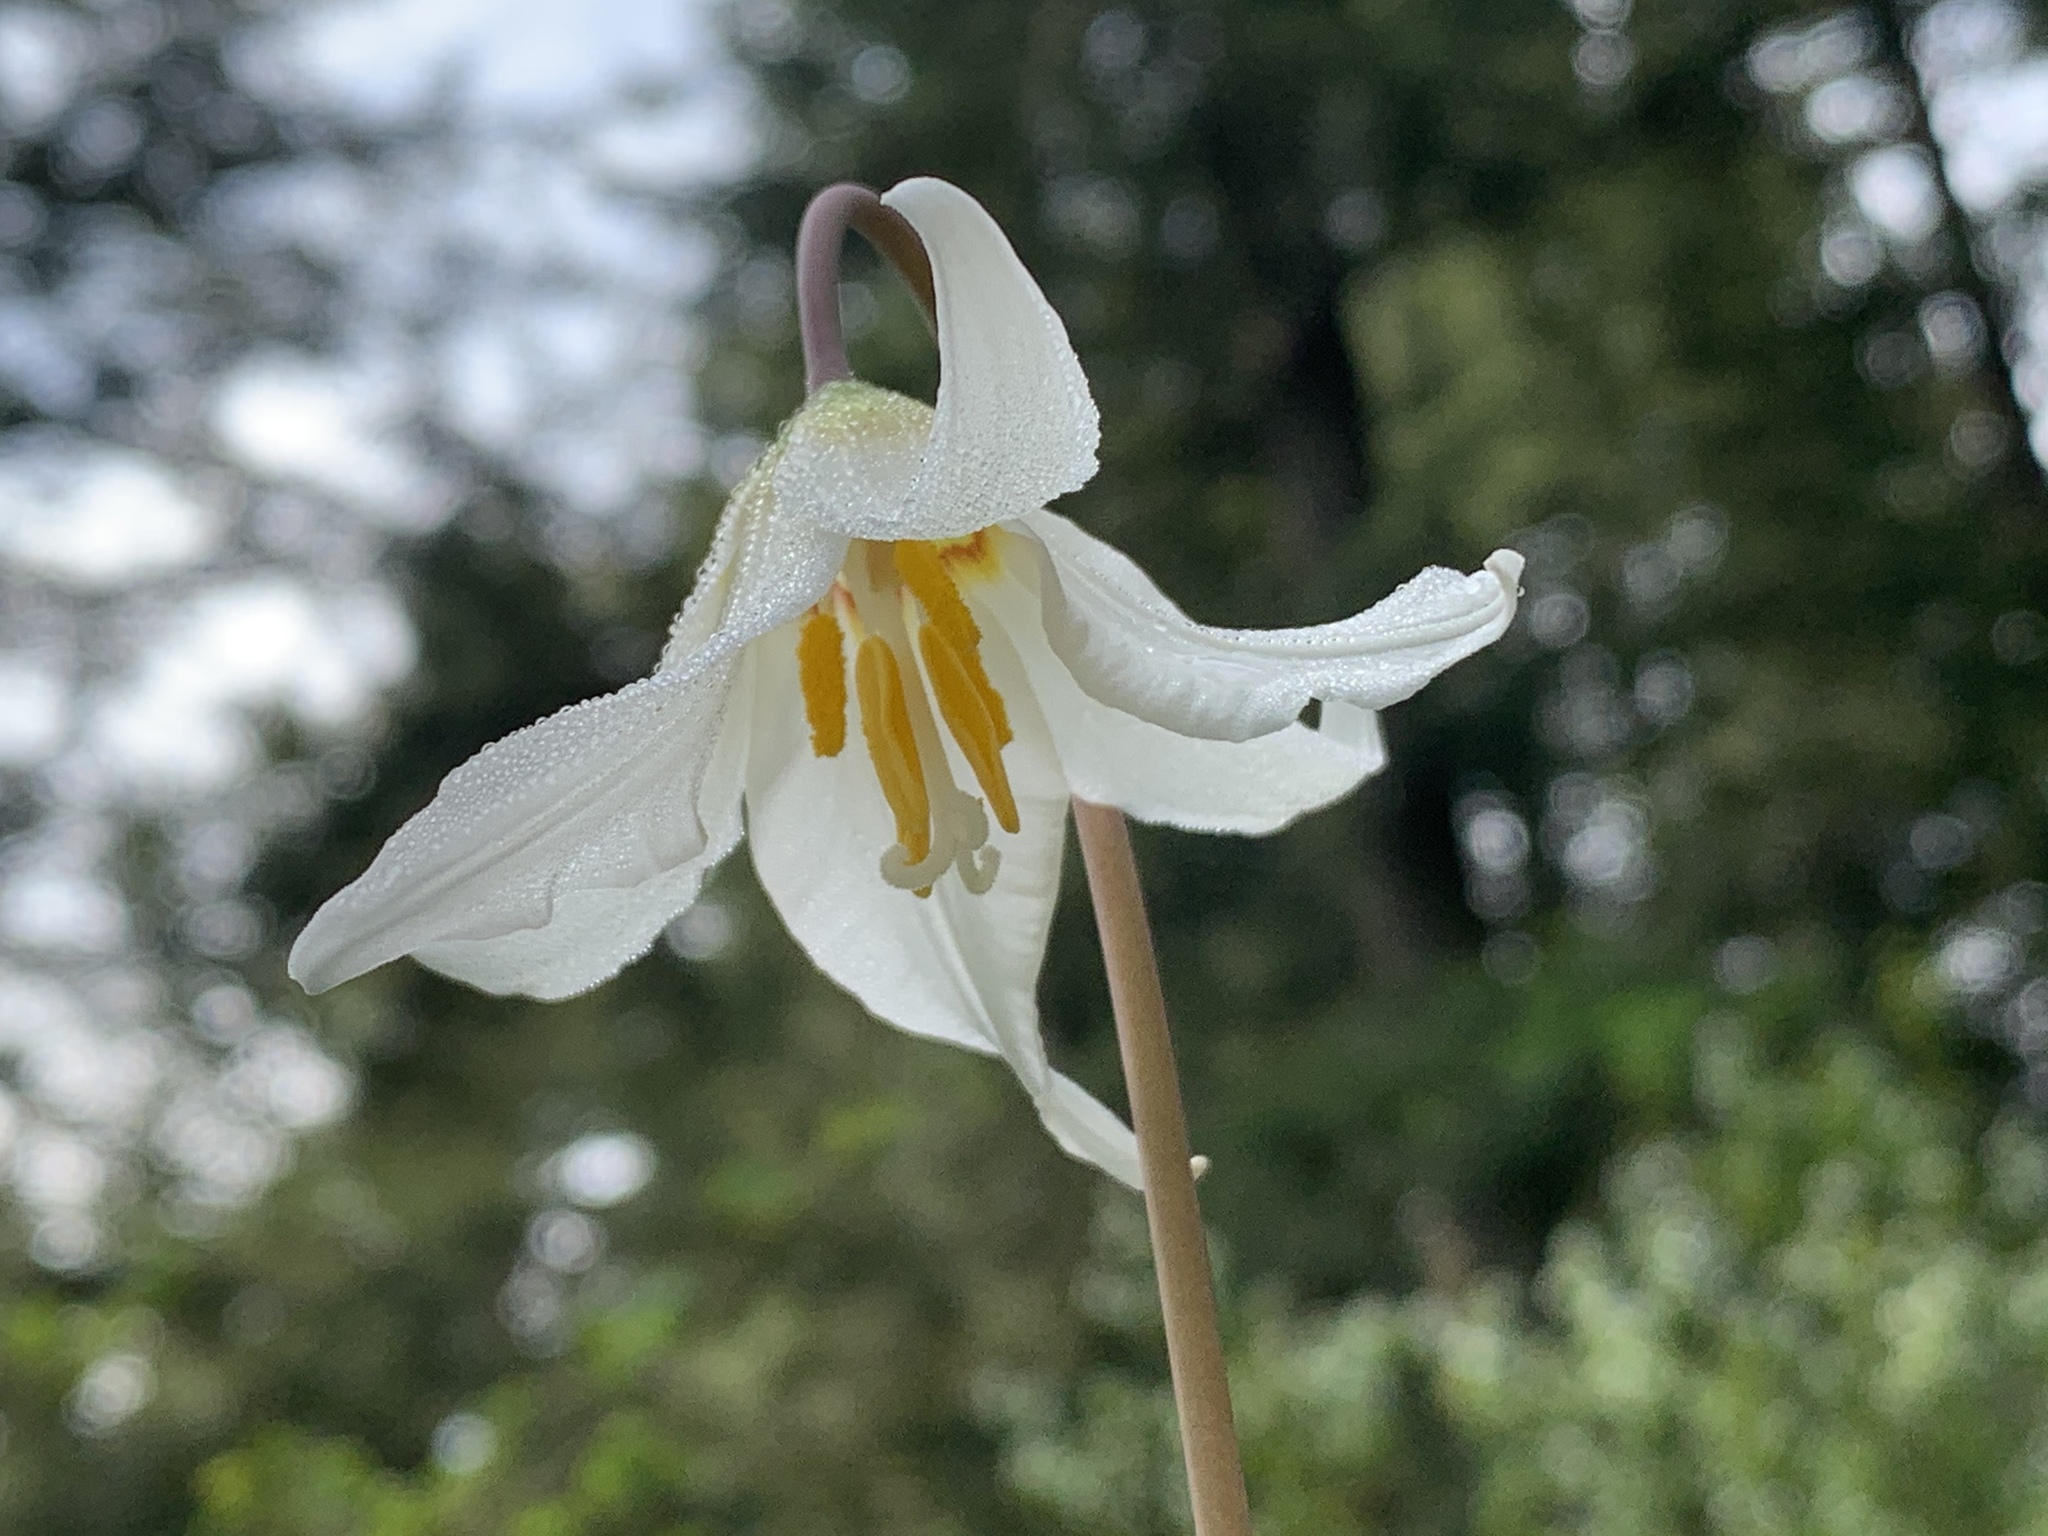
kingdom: Plantae
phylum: Tracheophyta
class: Liliopsida
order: Liliales
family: Liliaceae
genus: Erythronium
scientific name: Erythronium oregonum
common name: Giant adder's-tongue
